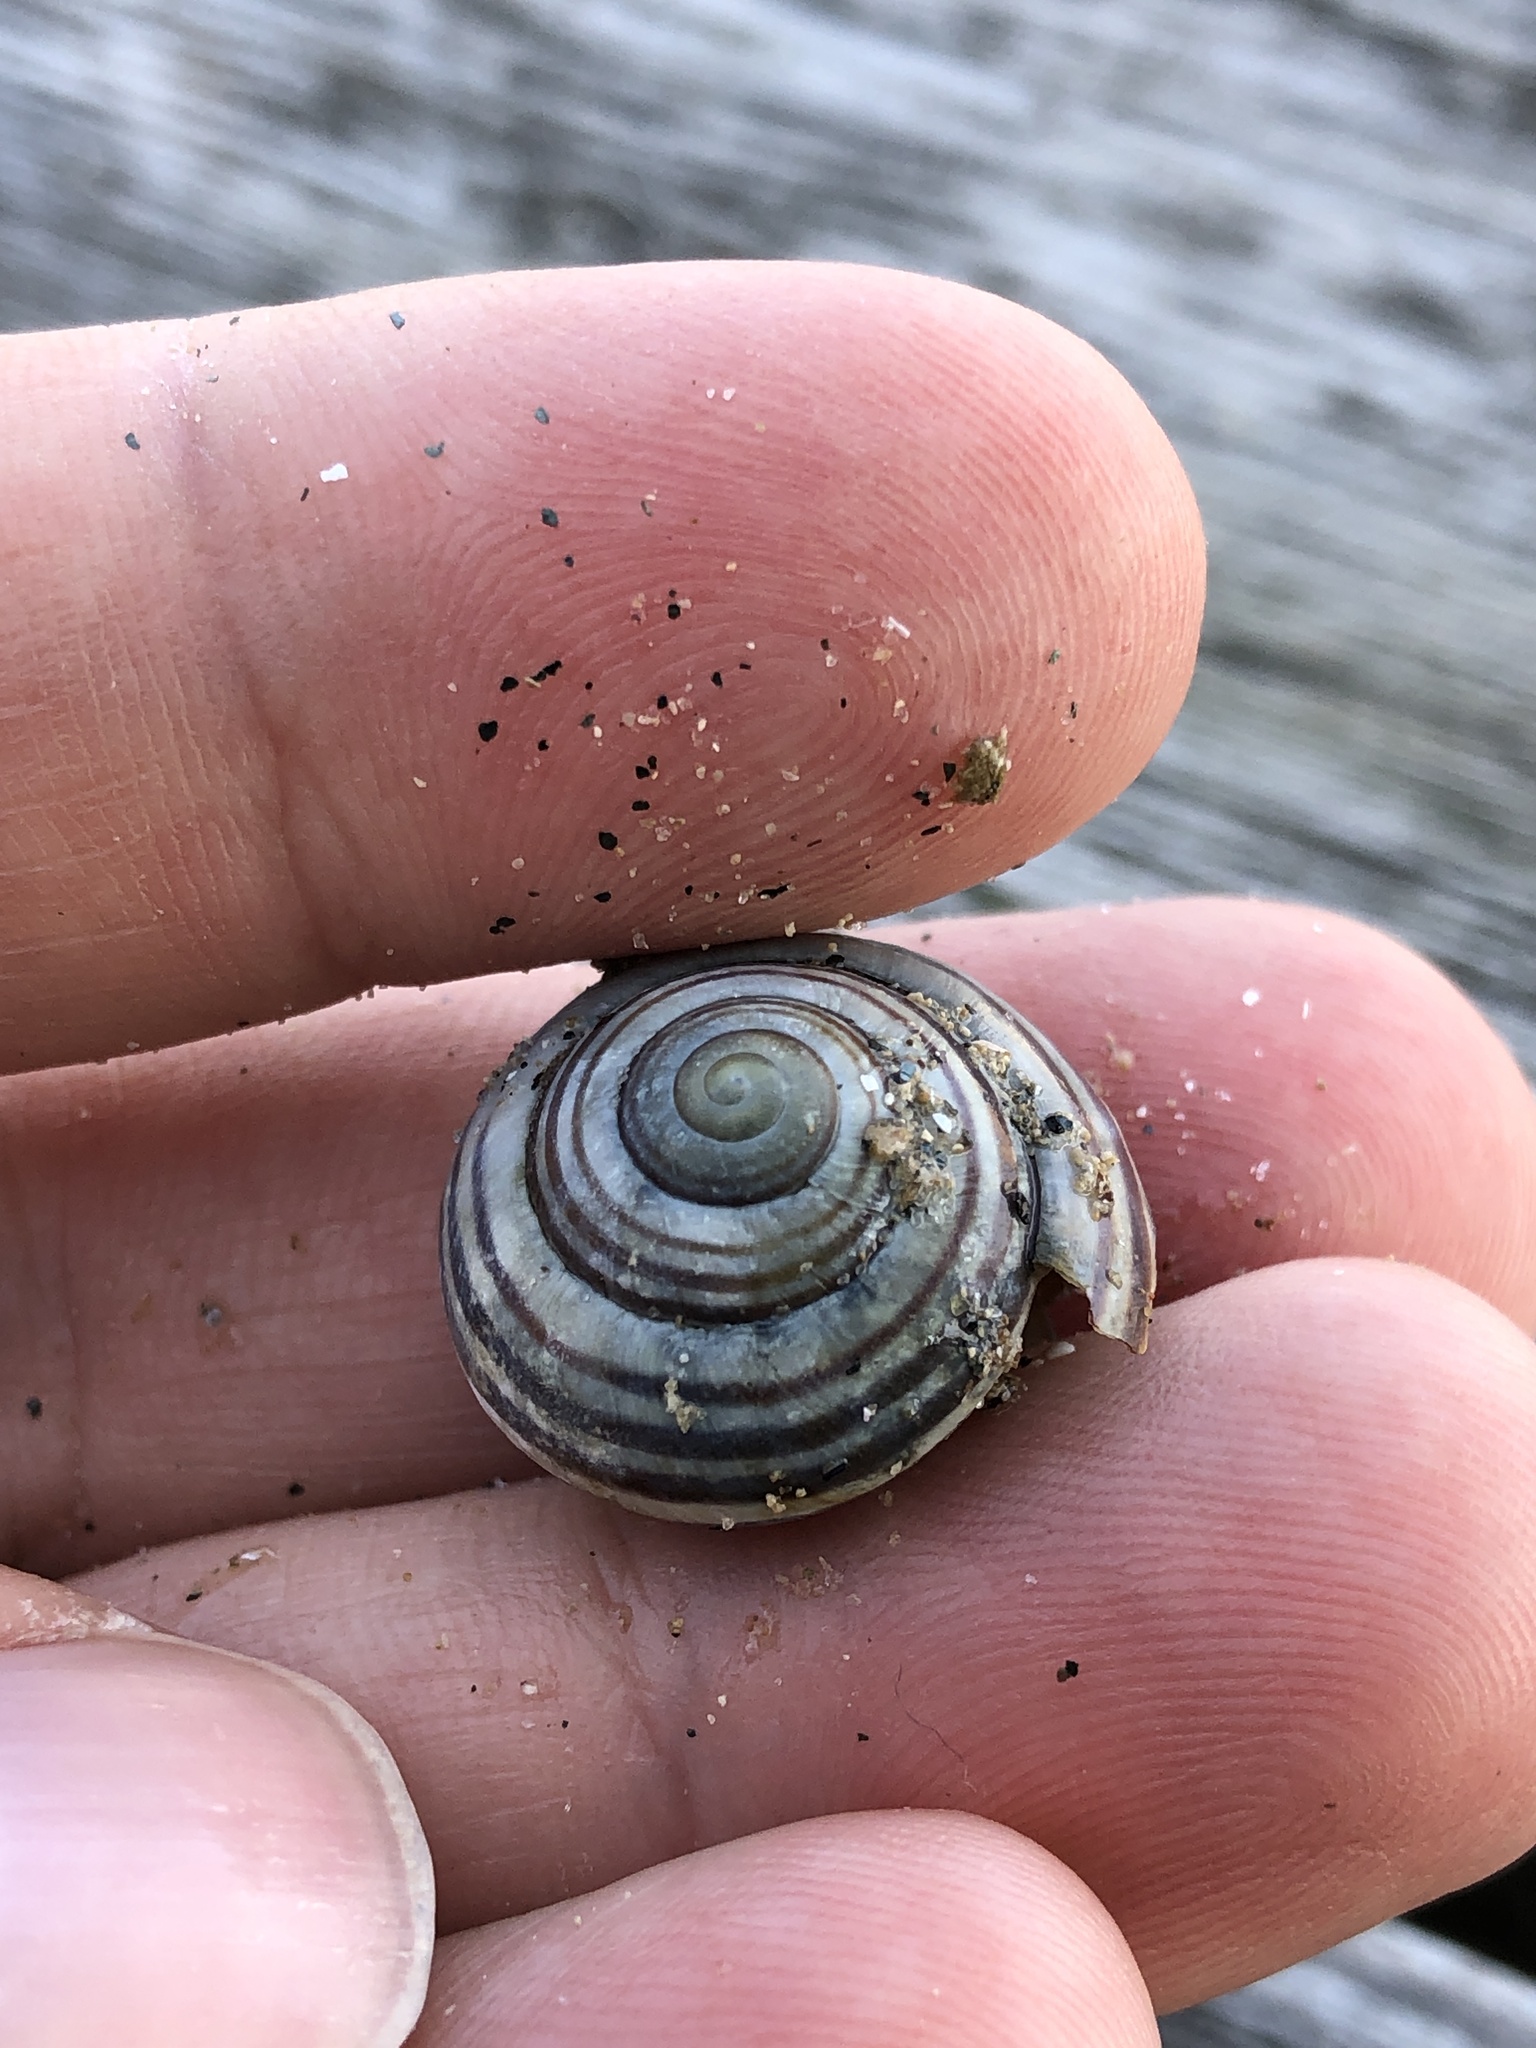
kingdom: Animalia
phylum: Mollusca
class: Gastropoda
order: Stylommatophora
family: Helicidae
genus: Cepaea
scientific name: Cepaea nemoralis
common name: Grovesnail
